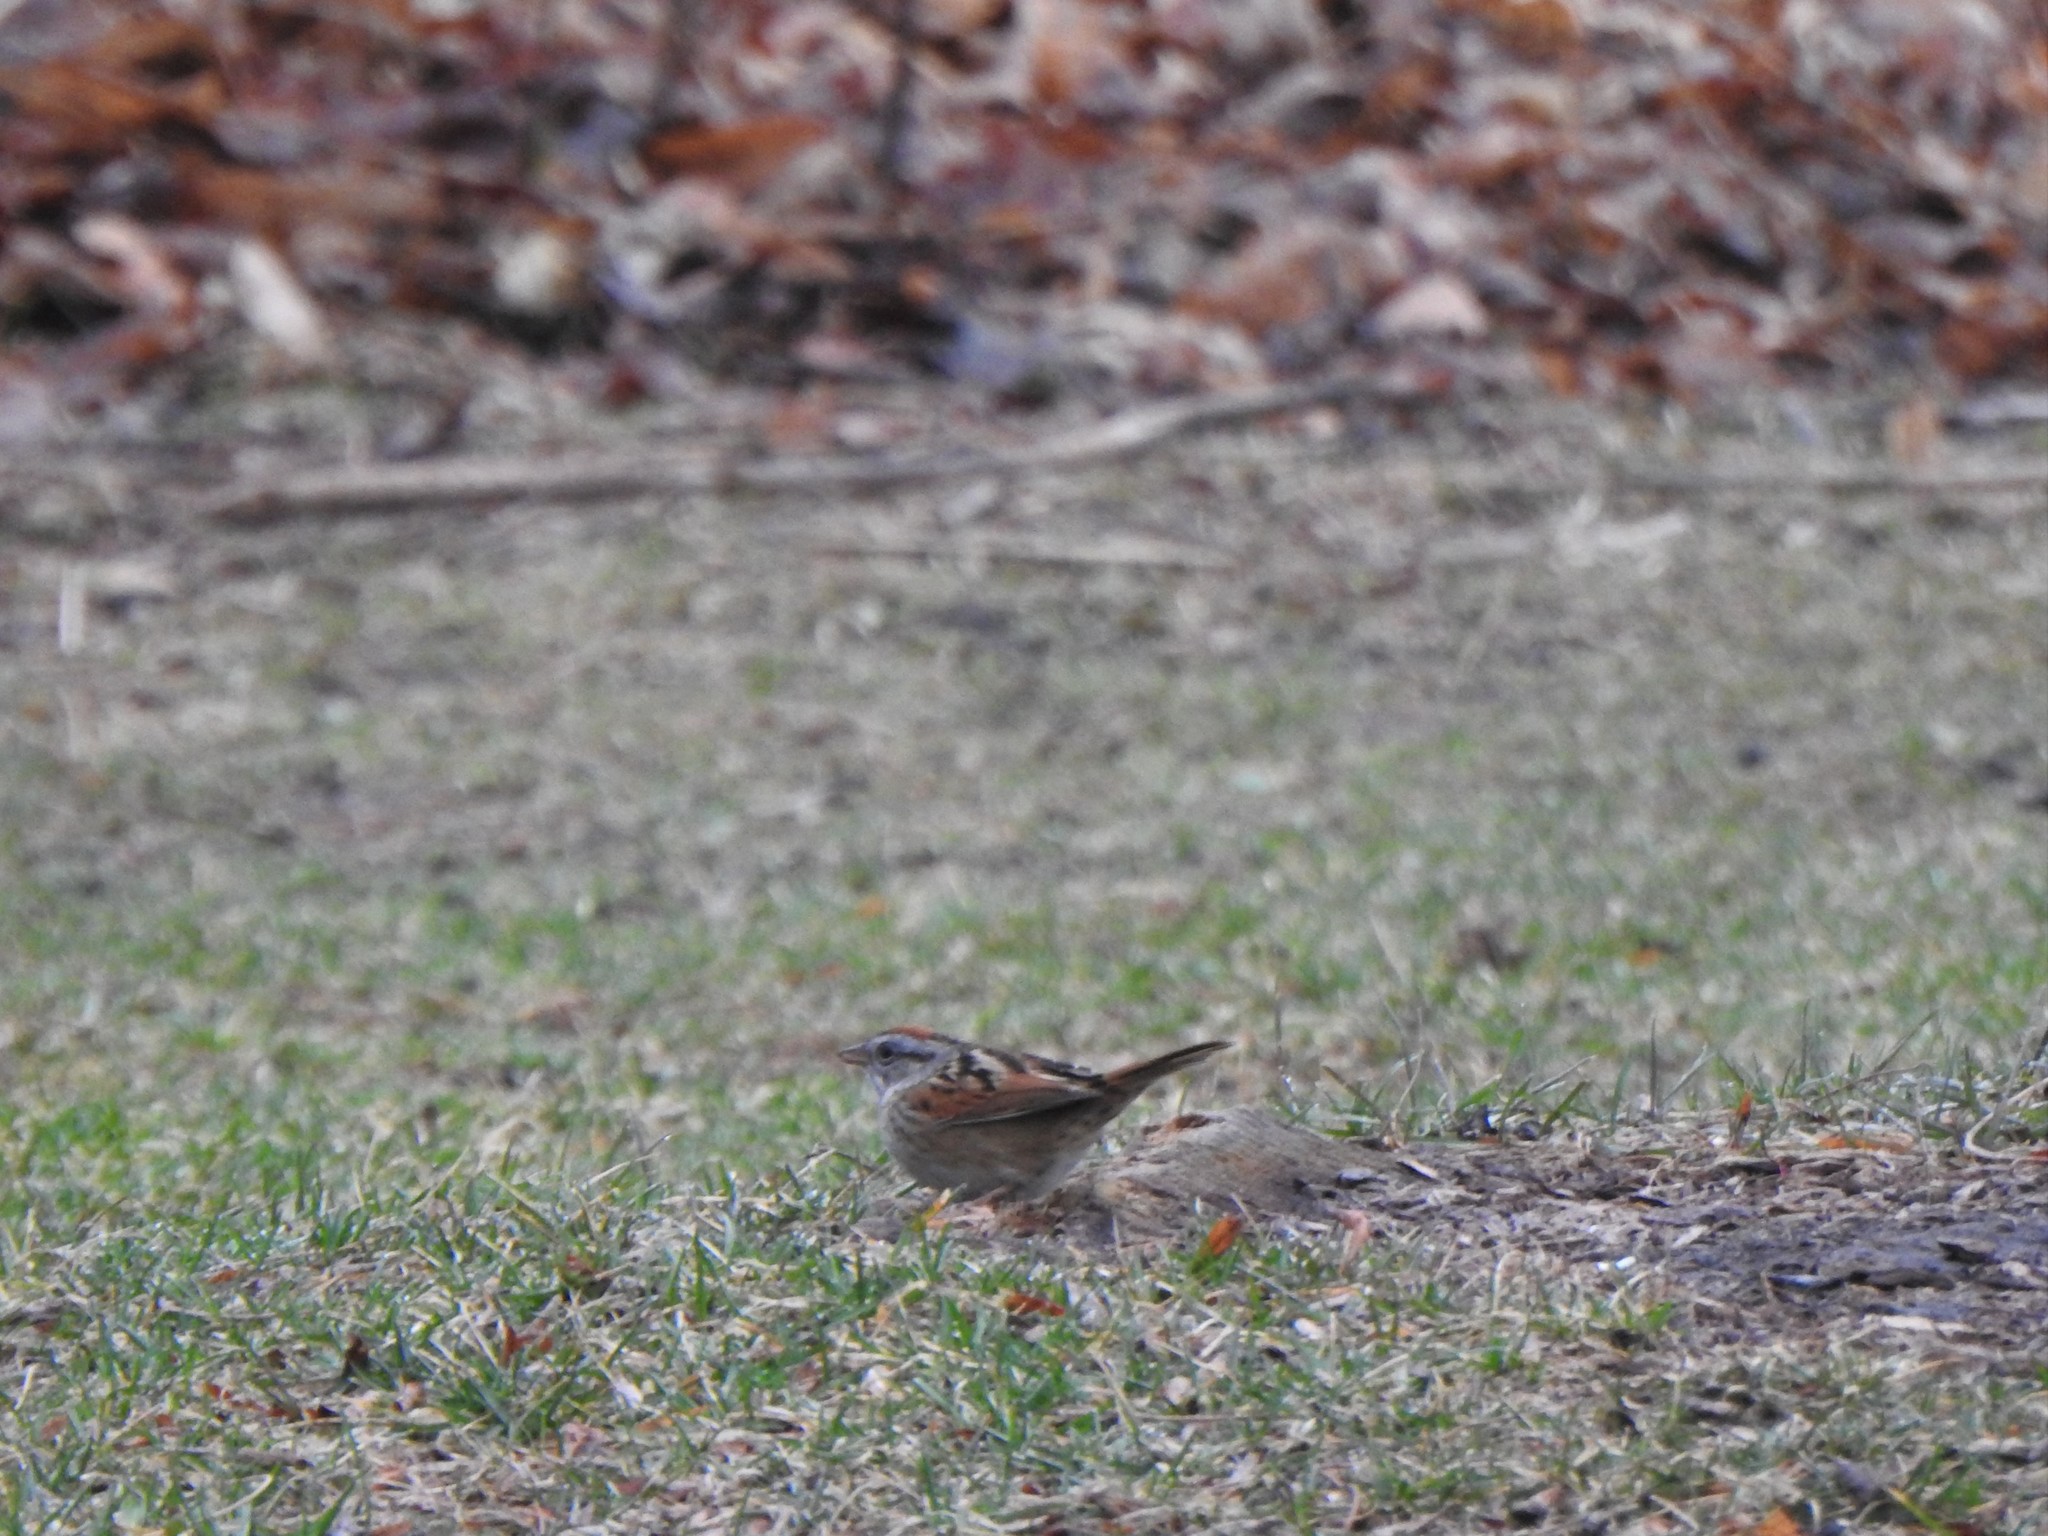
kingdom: Animalia
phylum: Chordata
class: Aves
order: Passeriformes
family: Passerellidae
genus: Melospiza
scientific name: Melospiza georgiana
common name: Swamp sparrow
